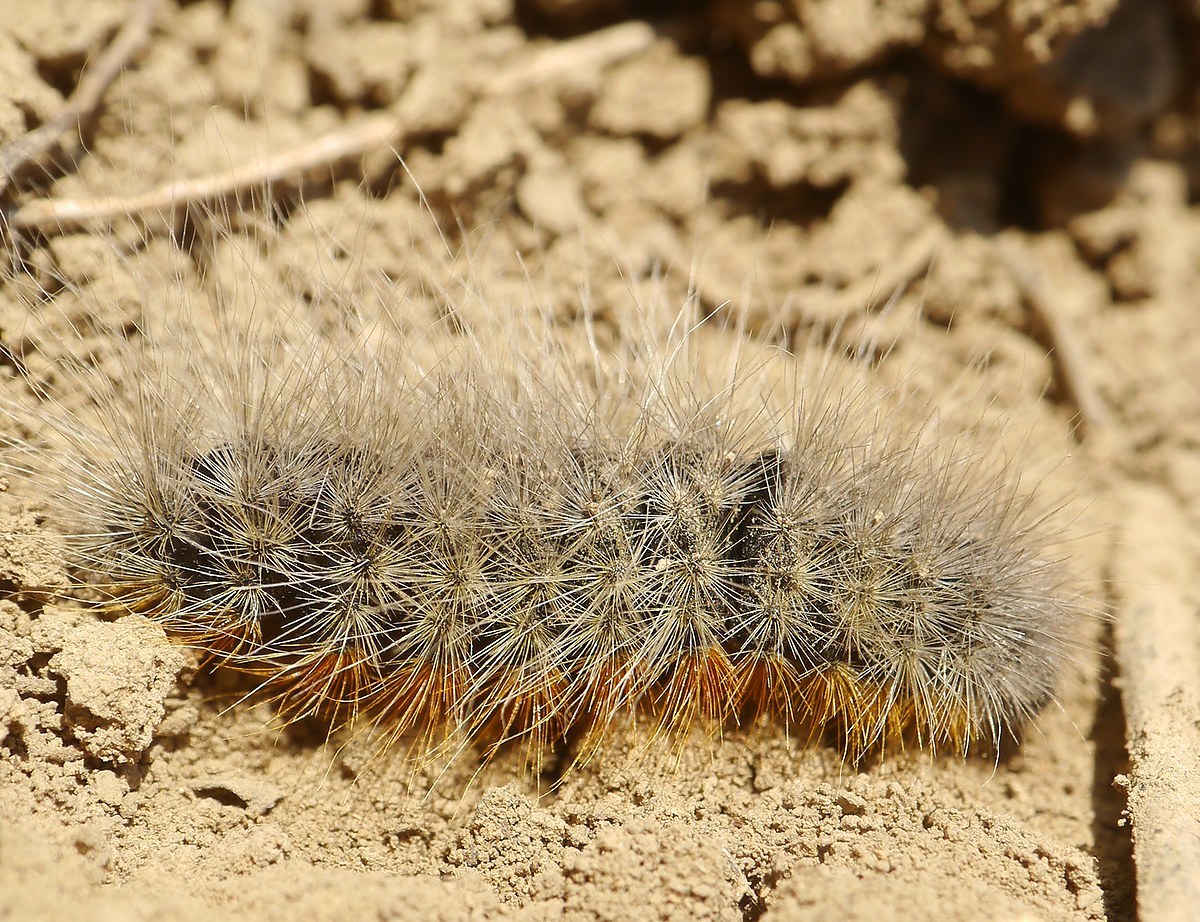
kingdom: Animalia
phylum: Arthropoda
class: Insecta
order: Lepidoptera
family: Erebidae
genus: Eucharia
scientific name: Eucharia festiva
